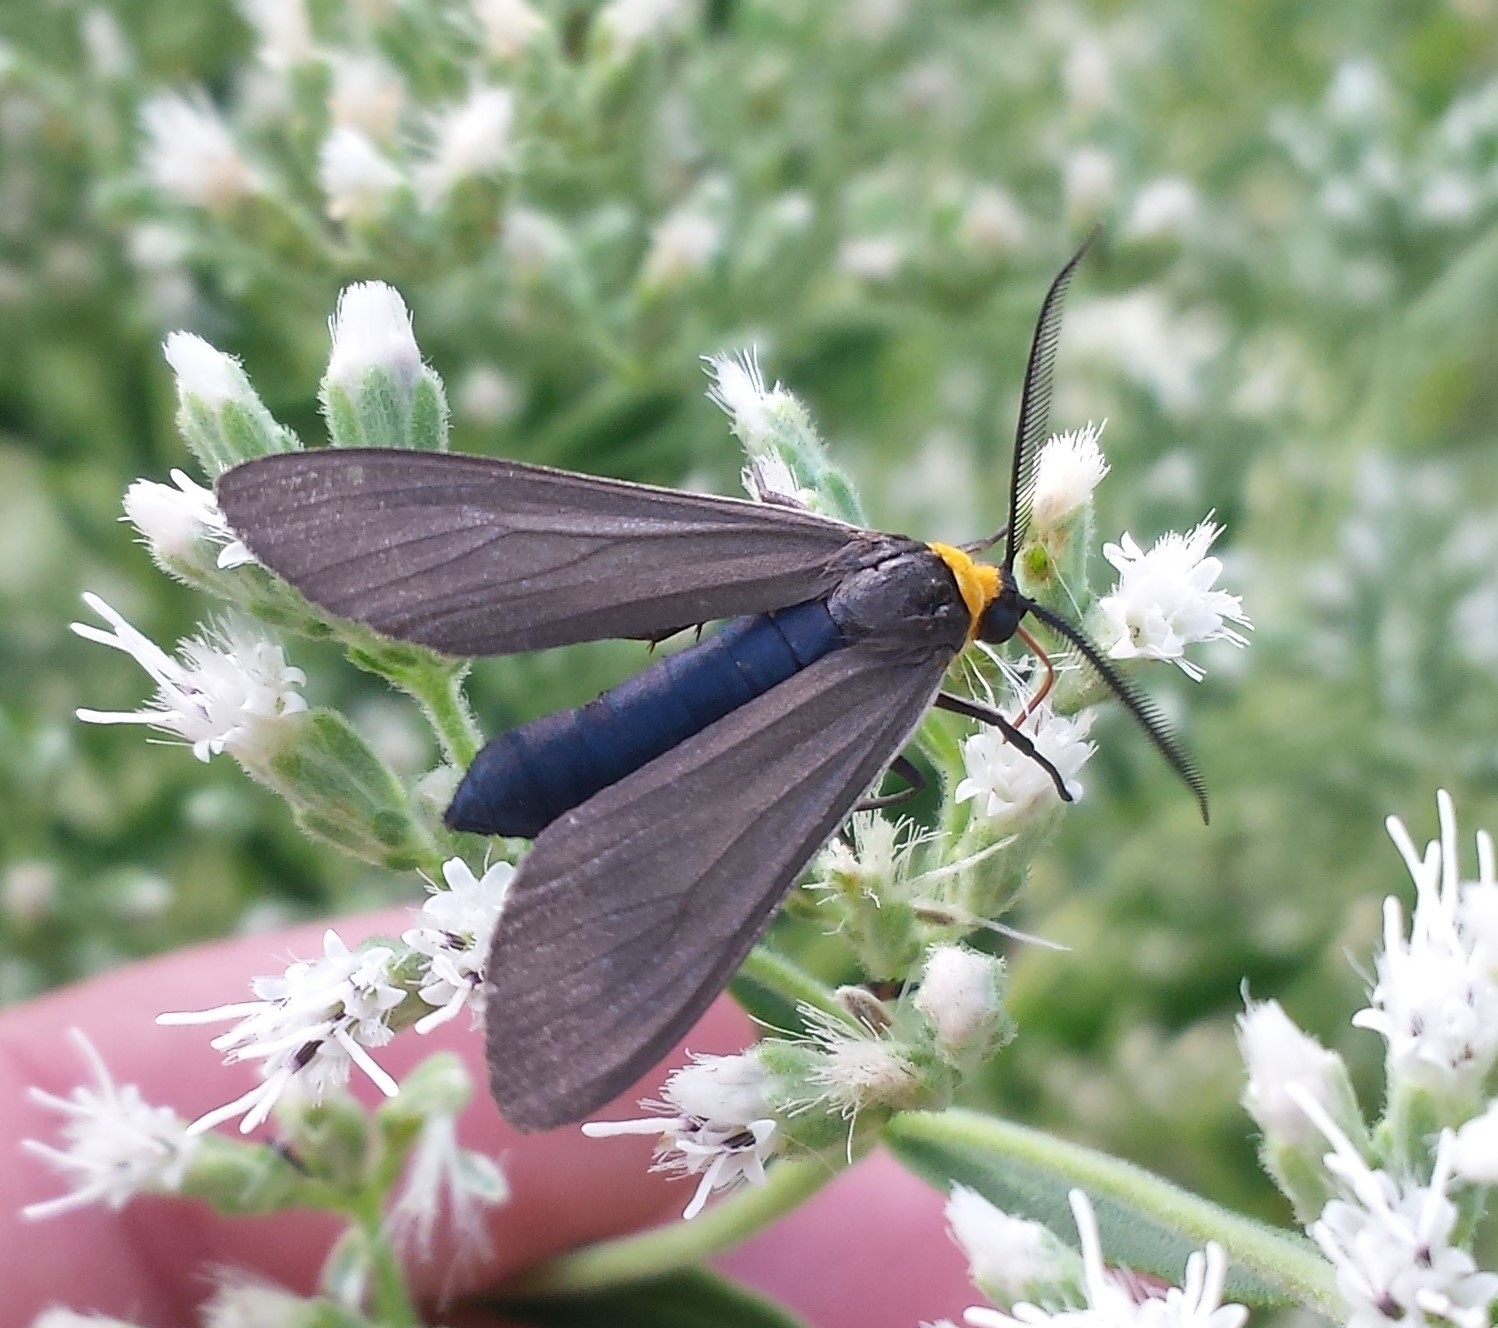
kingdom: Animalia
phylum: Arthropoda
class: Insecta
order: Lepidoptera
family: Erebidae
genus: Cisseps
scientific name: Cisseps fulvicollis
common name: Yellow-collared scape moth
